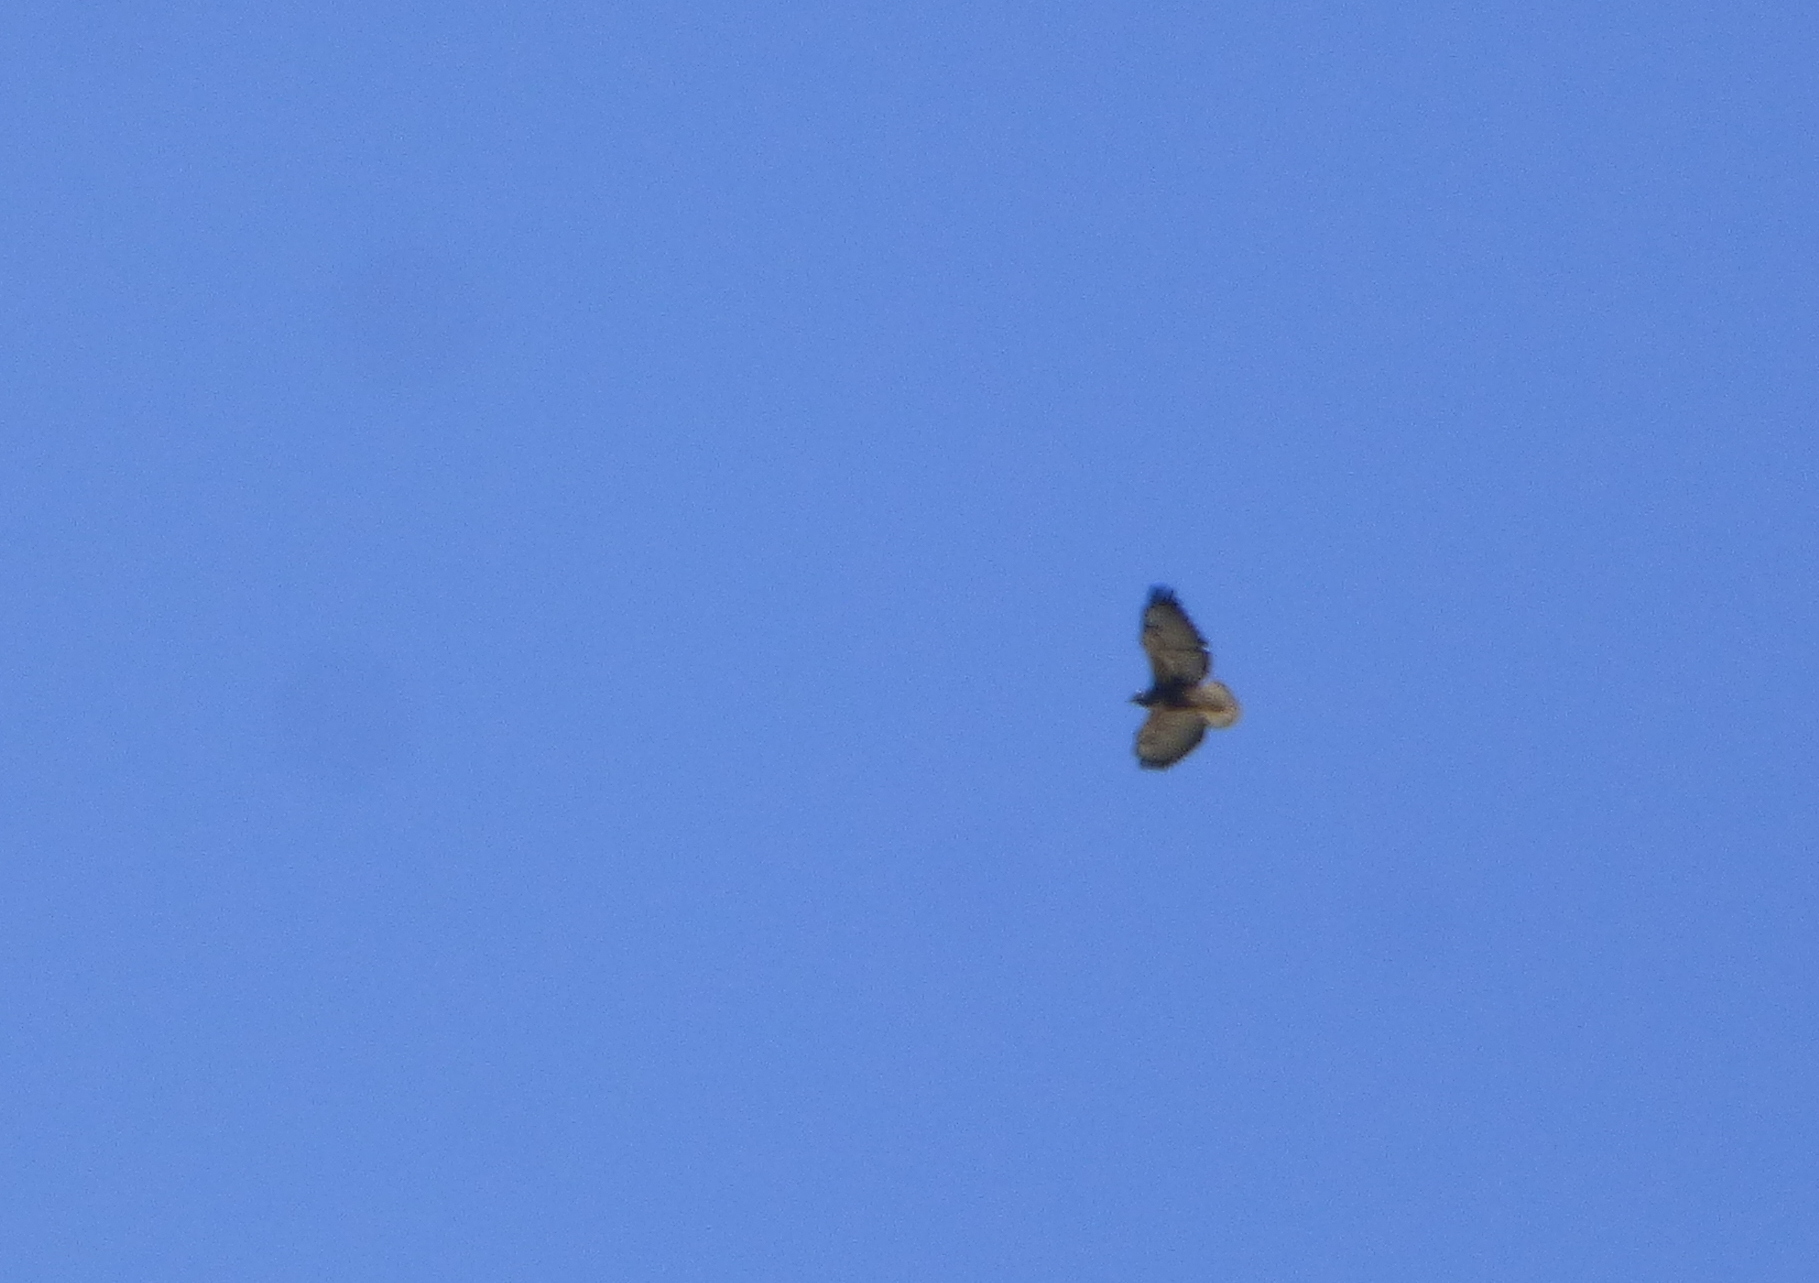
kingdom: Animalia
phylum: Chordata
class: Aves
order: Accipitriformes
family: Accipitridae
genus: Buteo
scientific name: Buteo albicaudatus
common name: White-tailed hawk
